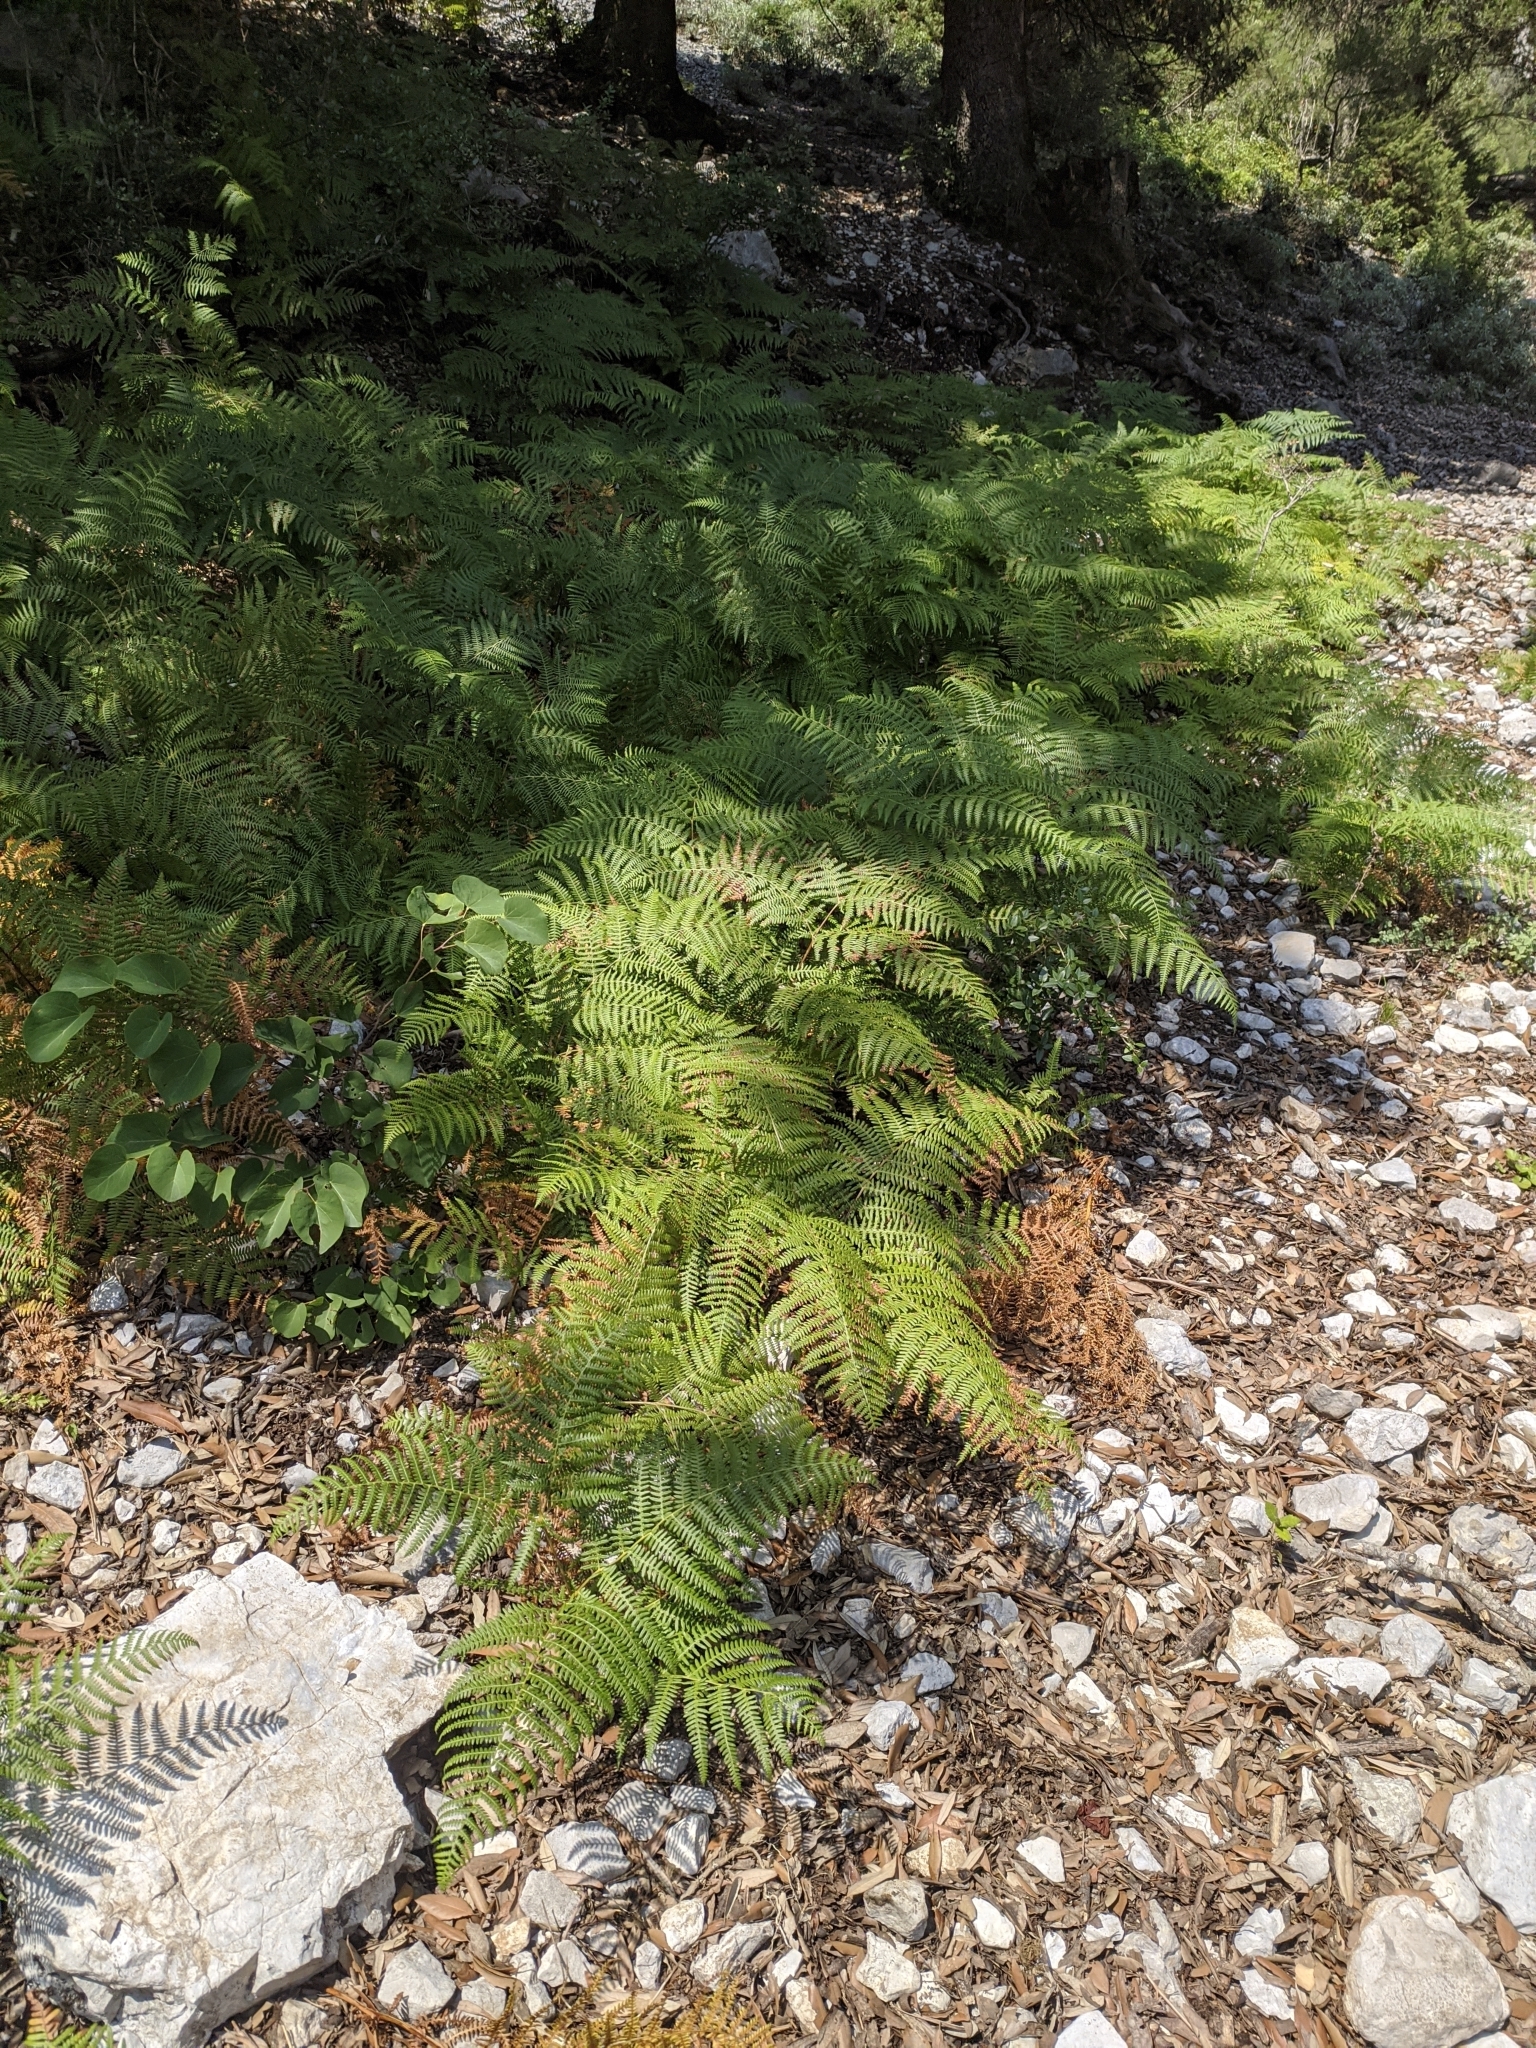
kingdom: Plantae
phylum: Tracheophyta
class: Polypodiopsida
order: Polypodiales
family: Dennstaedtiaceae
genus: Pteridium
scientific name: Pteridium aquilinum
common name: Bracken
